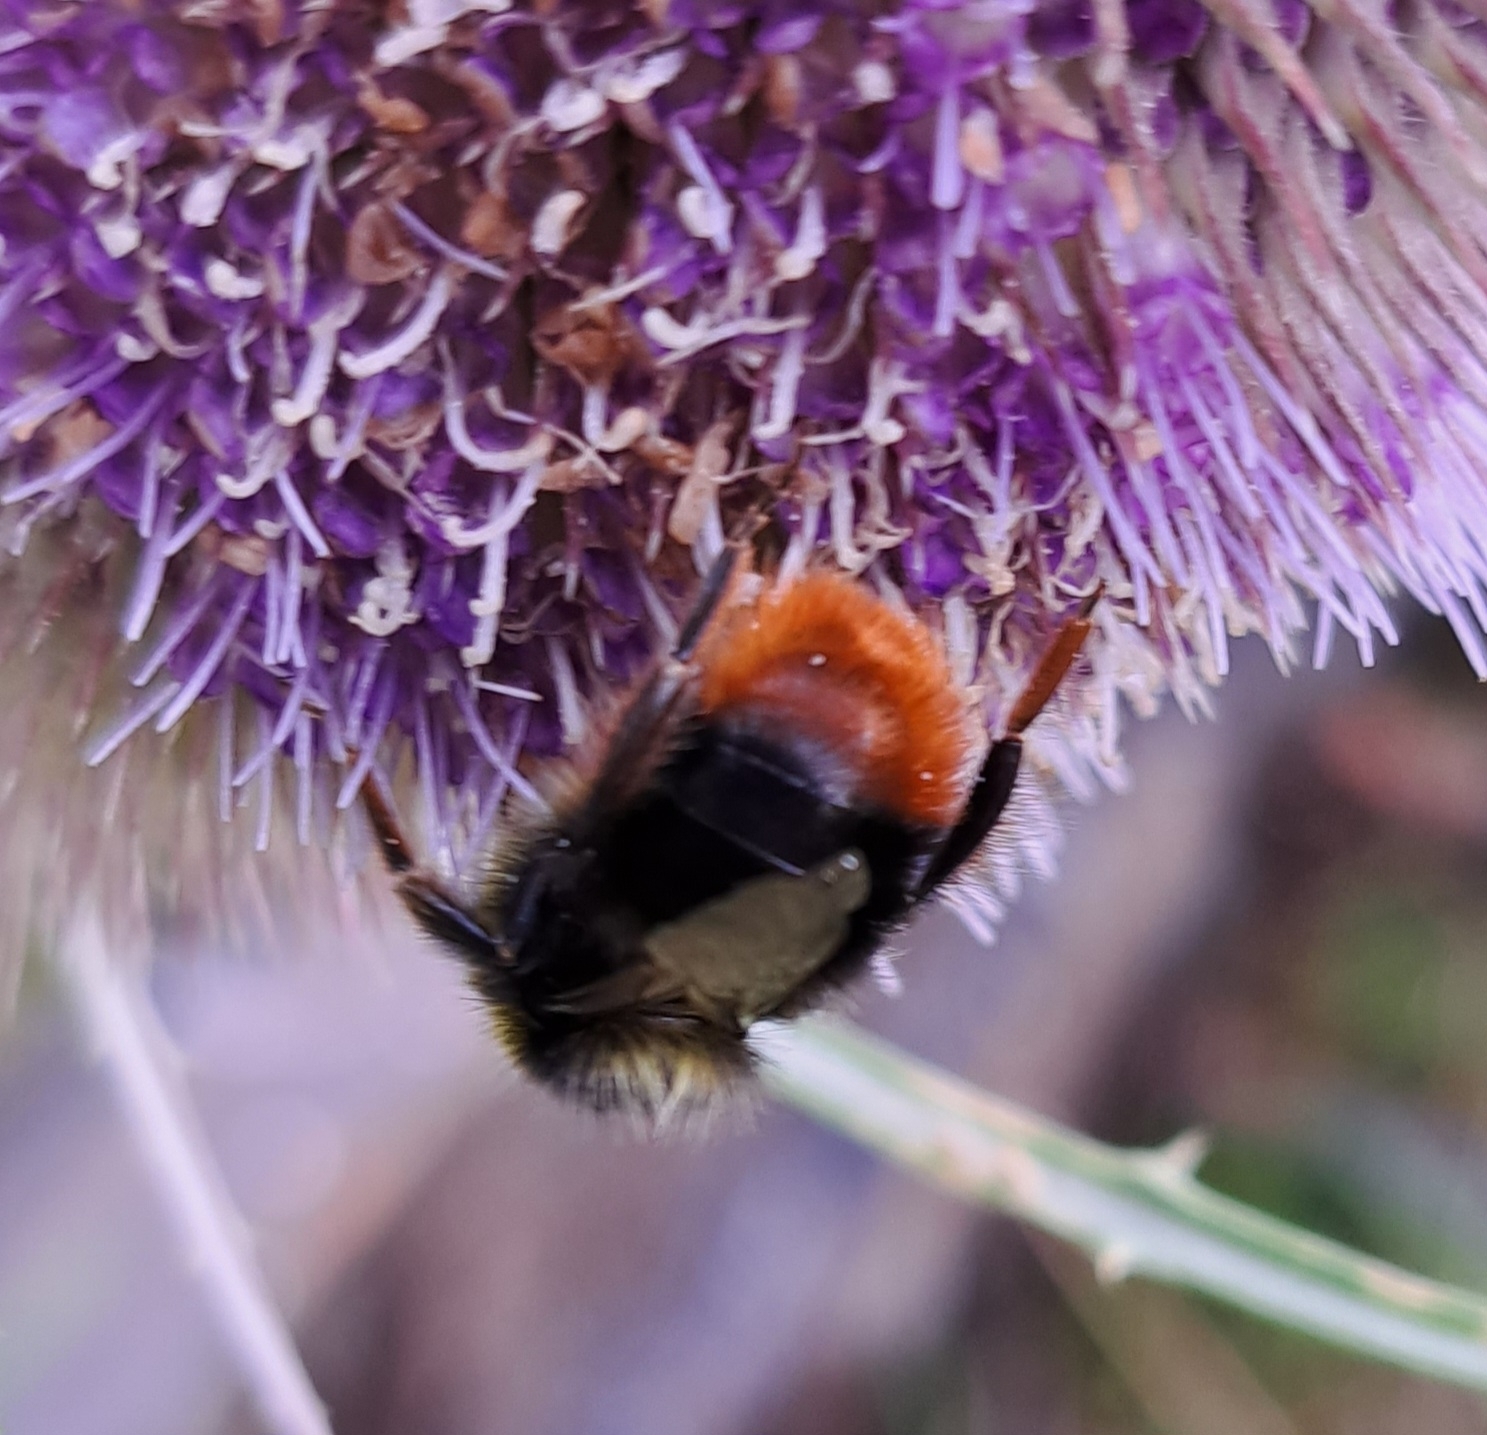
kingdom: Animalia
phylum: Arthropoda
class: Insecta
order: Hymenoptera
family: Apidae
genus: Bombus
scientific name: Bombus lapidarius
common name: Large red-tailed humble-bee
